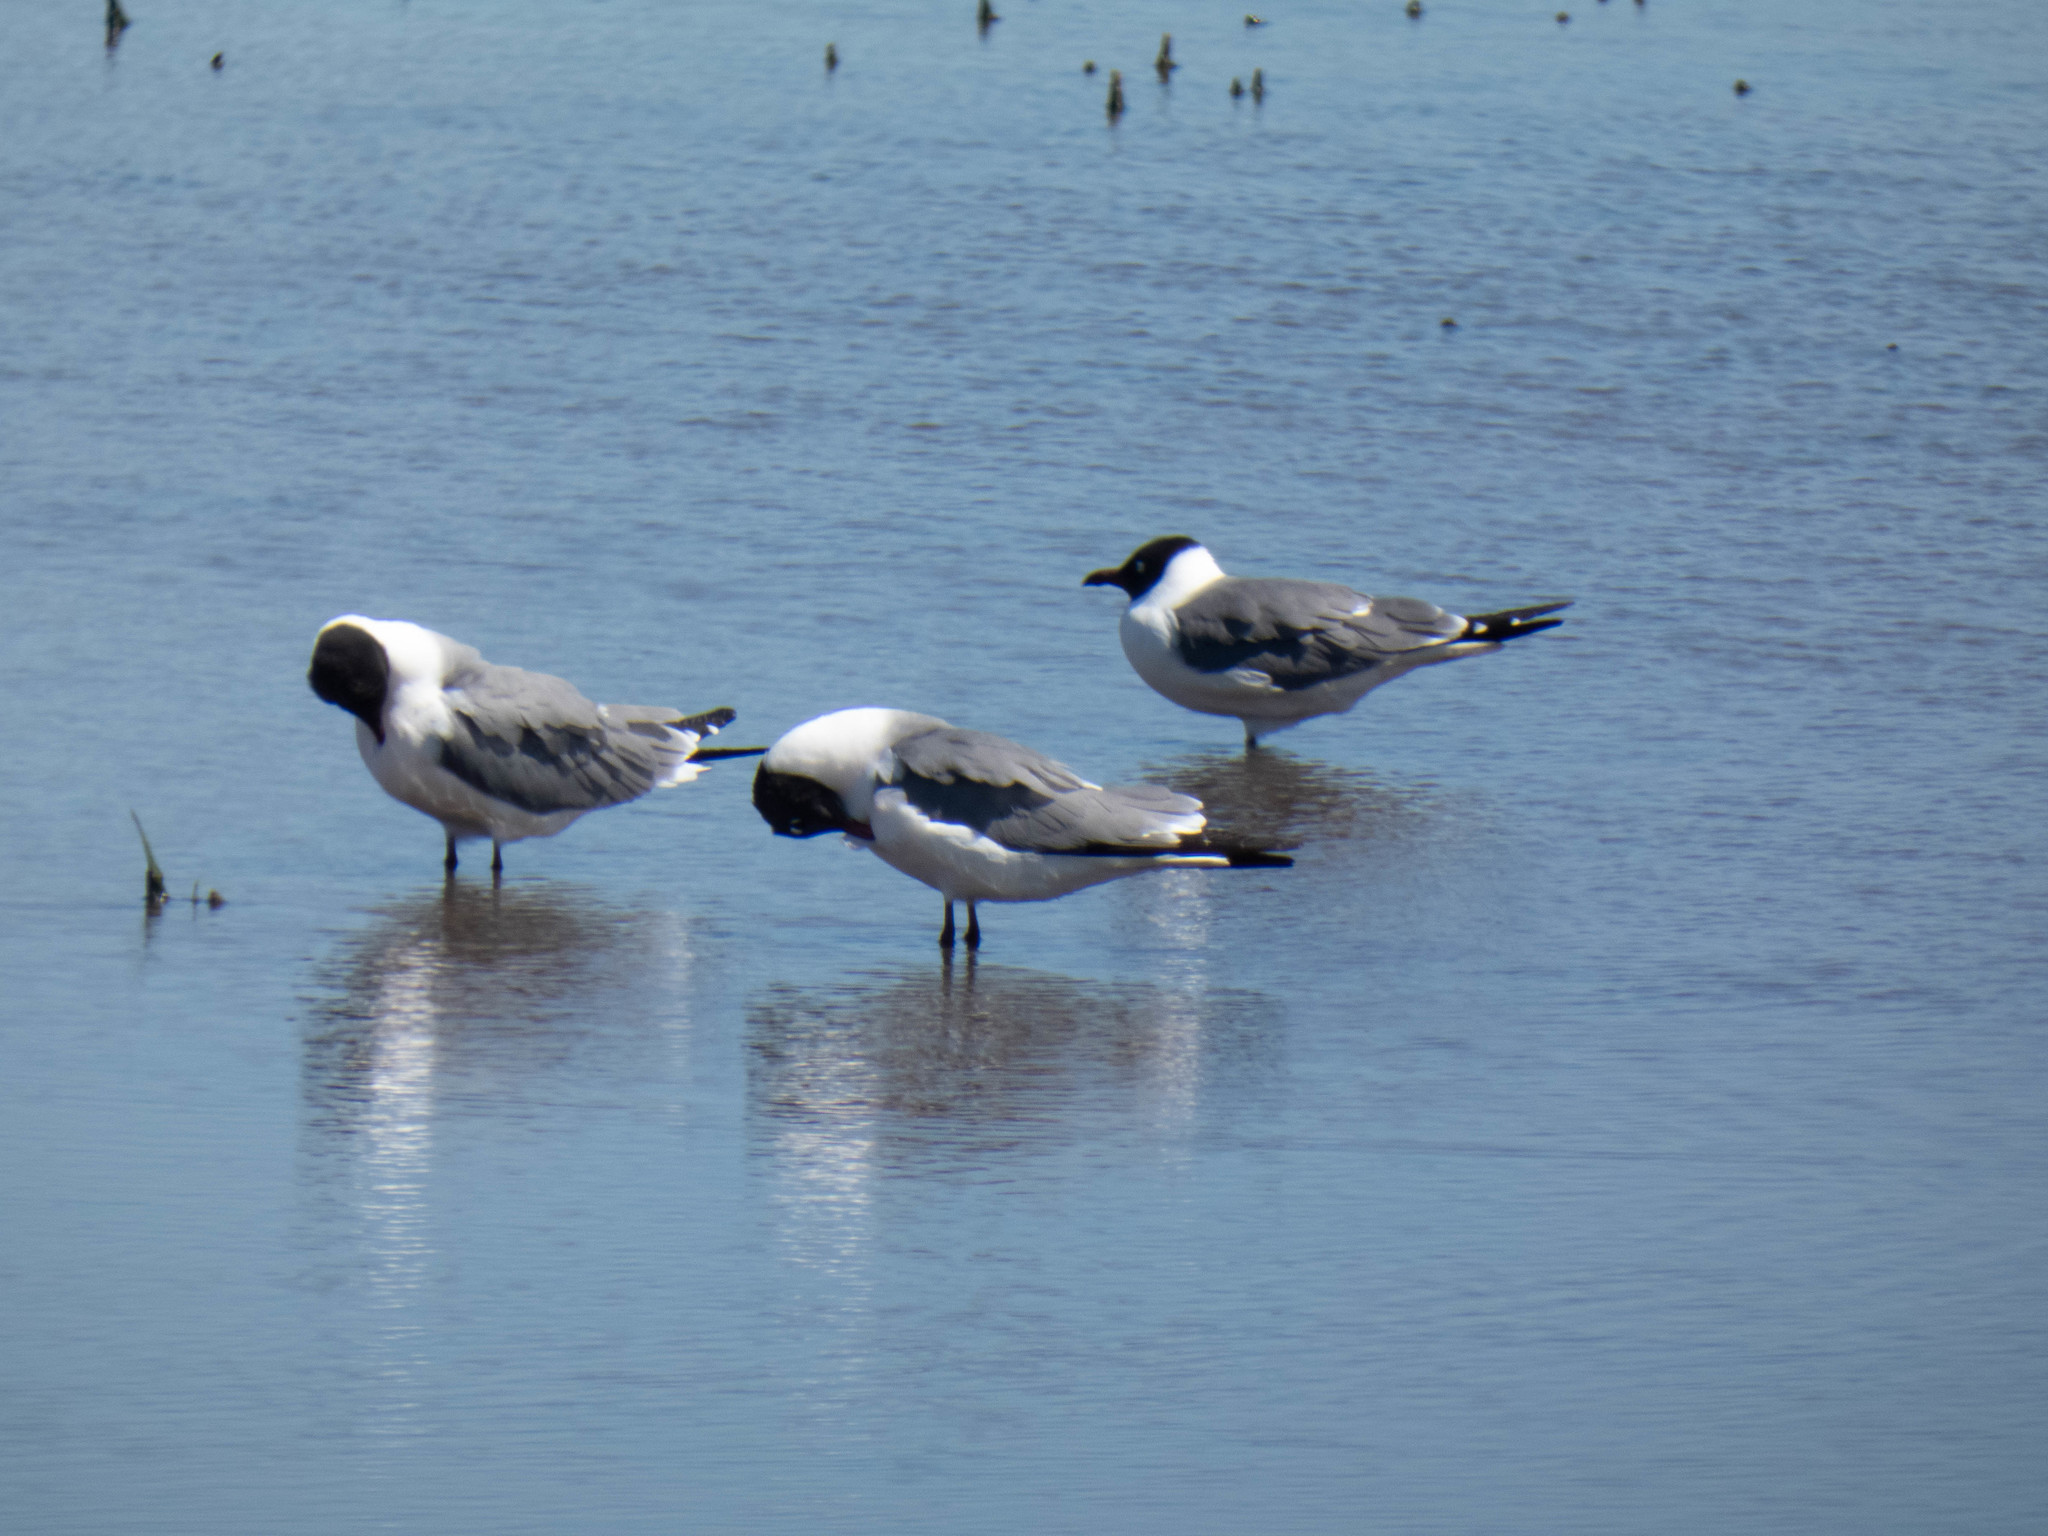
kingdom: Animalia
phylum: Chordata
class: Aves
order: Charadriiformes
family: Laridae
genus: Leucophaeus
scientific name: Leucophaeus atricilla
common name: Laughing gull
